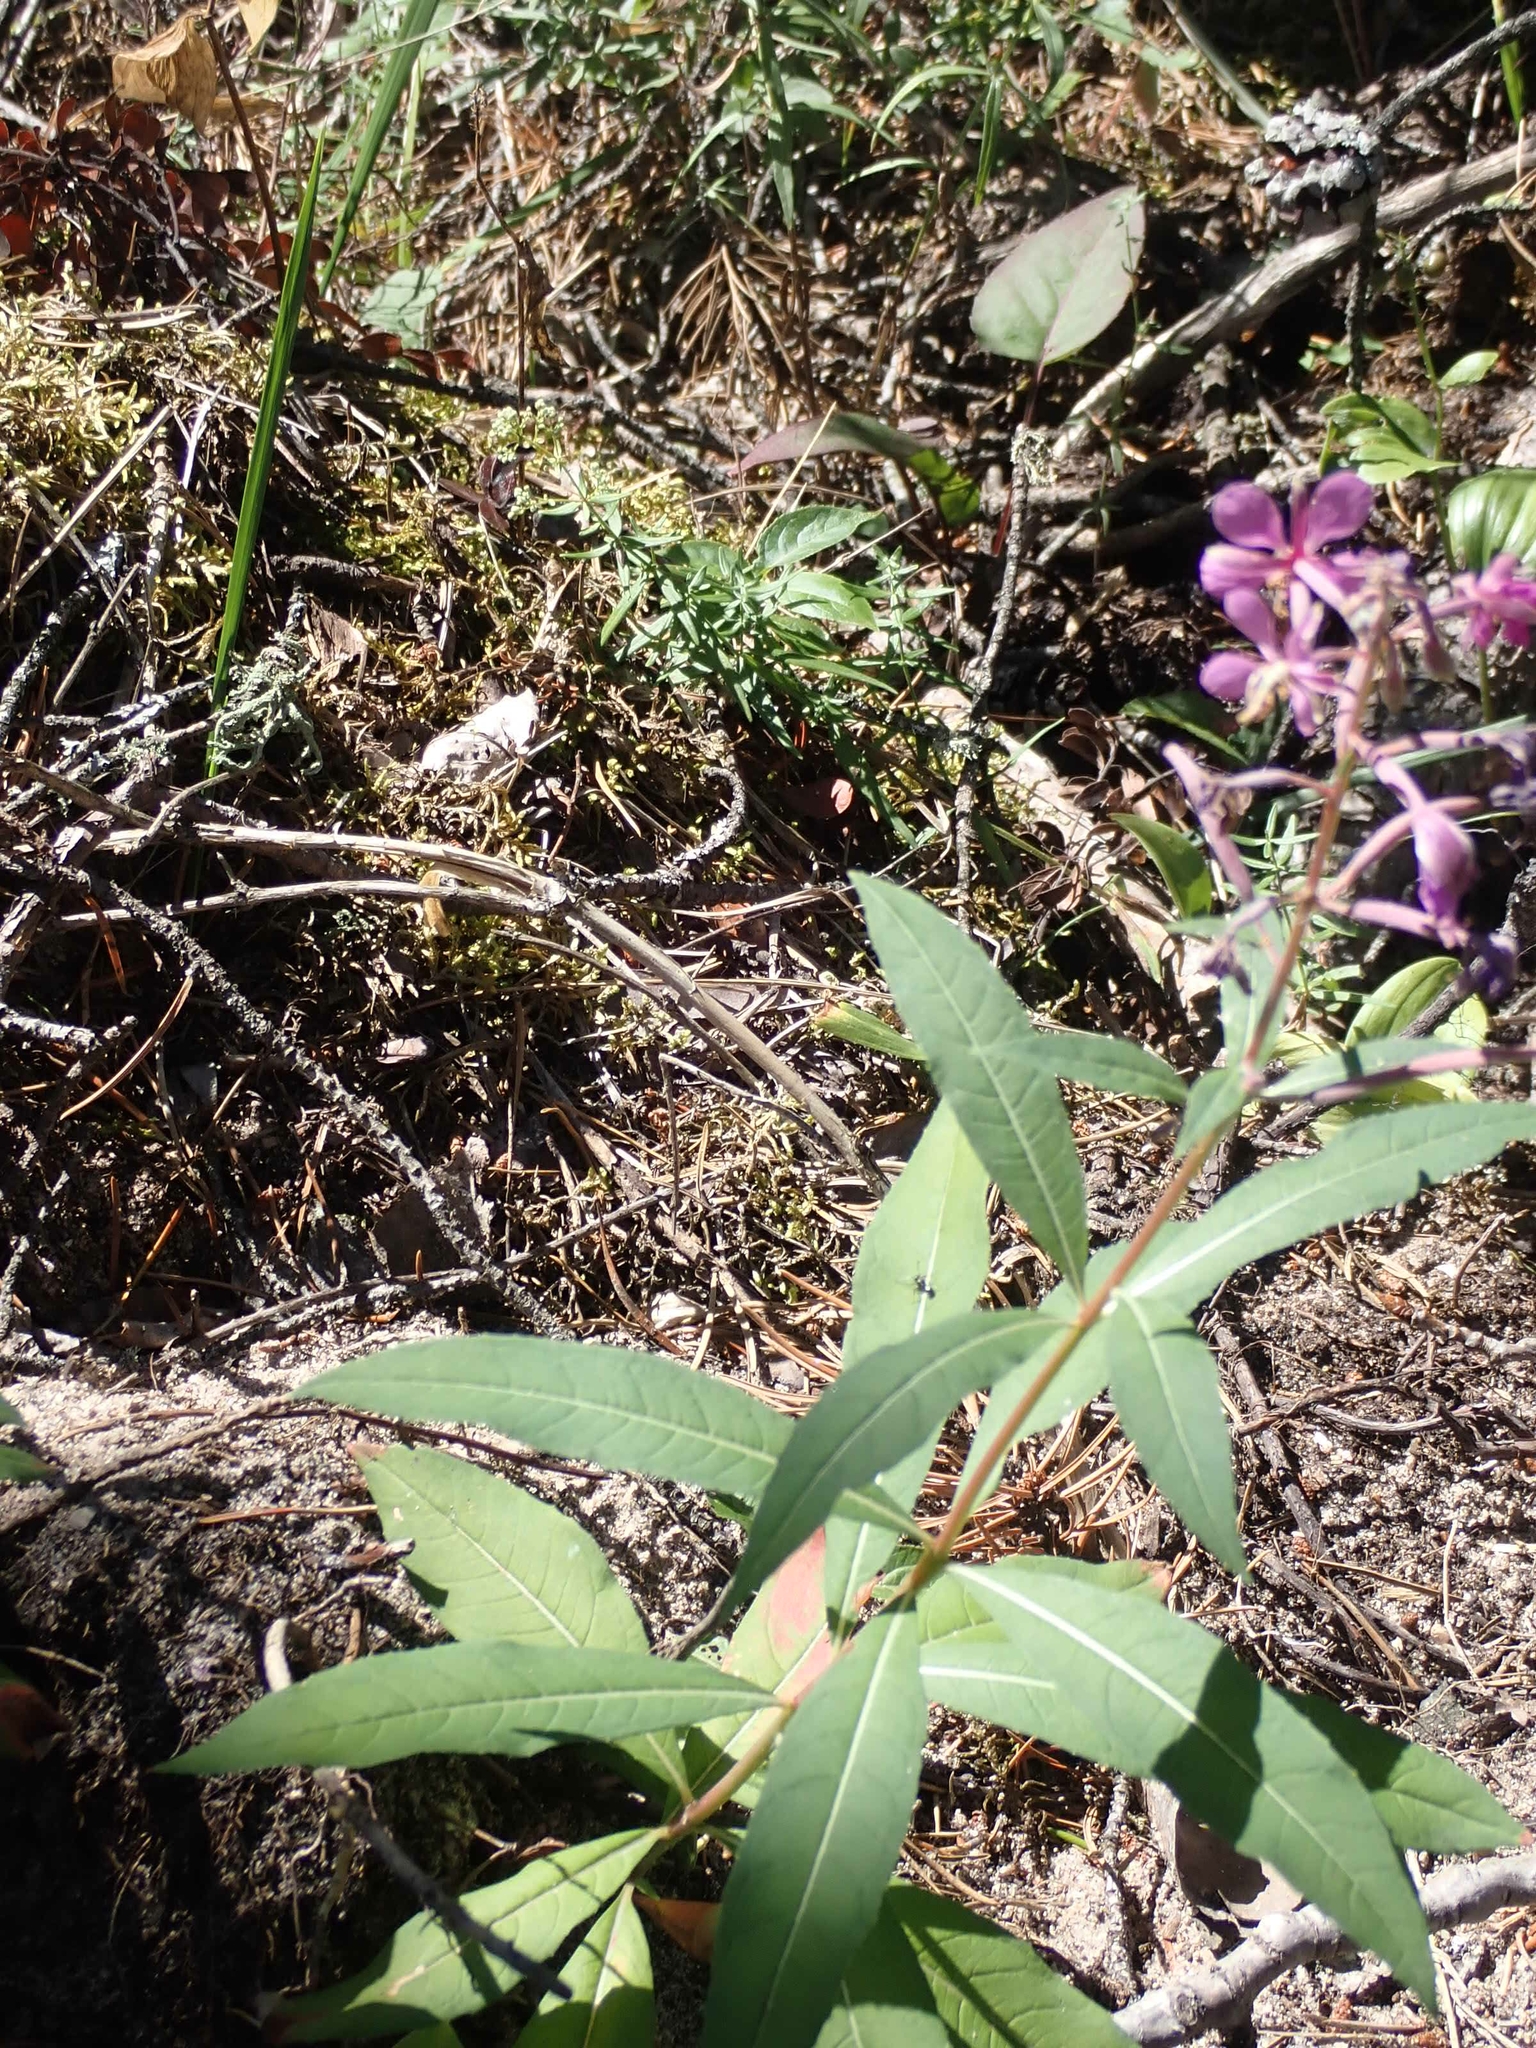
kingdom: Plantae
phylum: Tracheophyta
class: Magnoliopsida
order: Myrtales
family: Onagraceae
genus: Chamaenerion
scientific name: Chamaenerion angustifolium
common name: Fireweed
